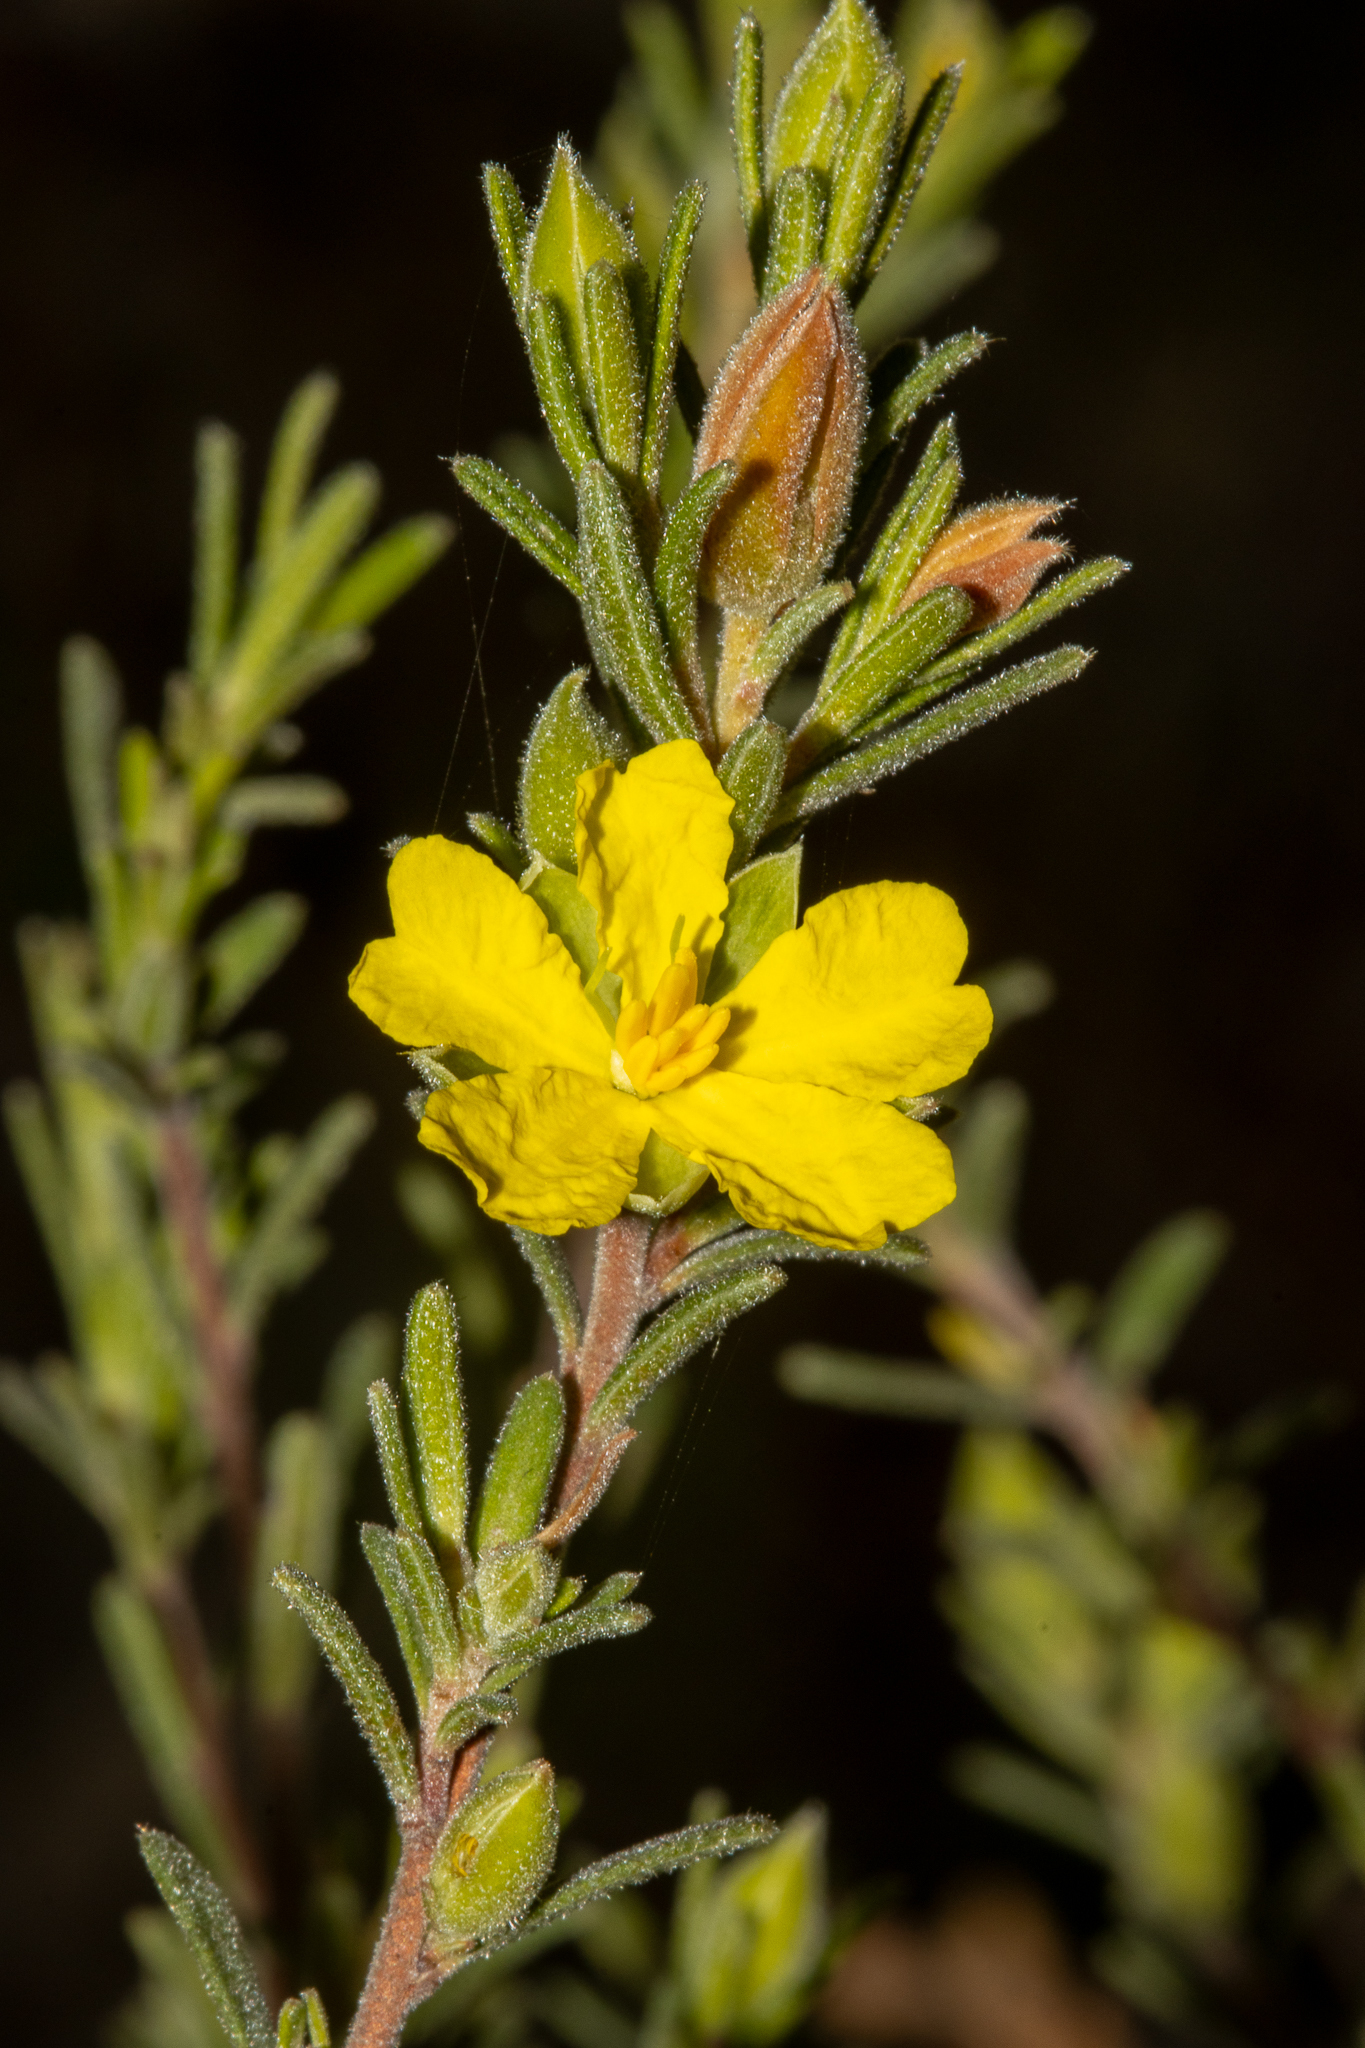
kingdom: Plantae
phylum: Tracheophyta
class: Magnoliopsida
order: Dilleniales
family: Dilleniaceae
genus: Hibbertia
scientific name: Hibbertia australis
